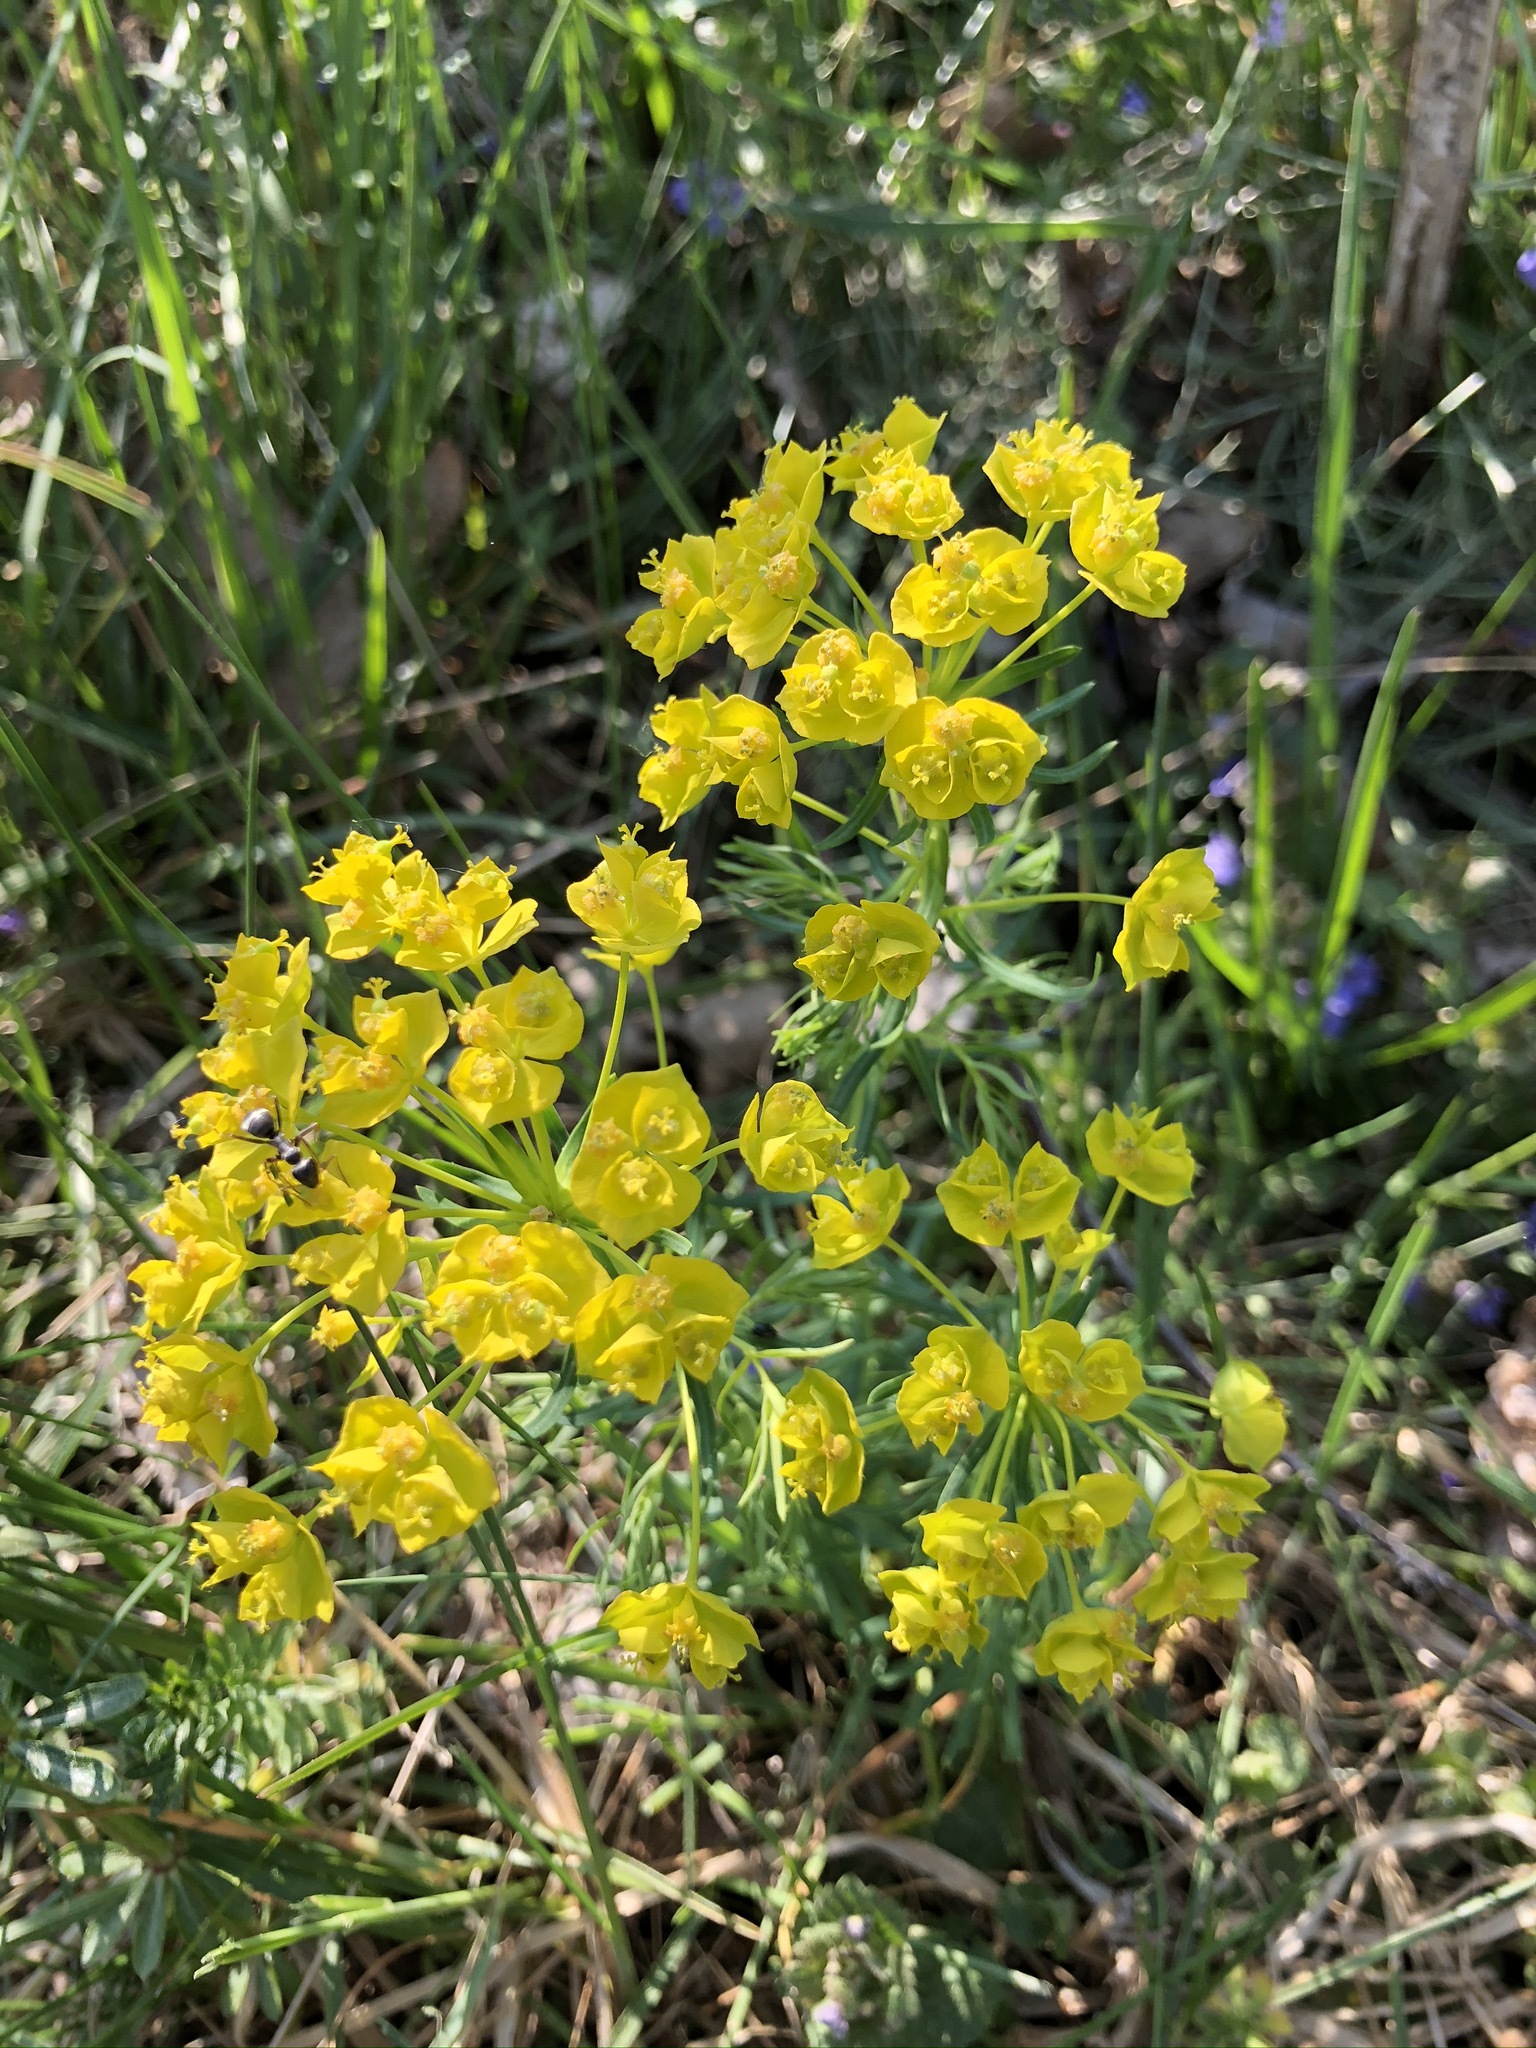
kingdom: Plantae
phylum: Tracheophyta
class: Magnoliopsida
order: Malpighiales
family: Euphorbiaceae
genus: Euphorbia
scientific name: Euphorbia cyparissias
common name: Cypress spurge
